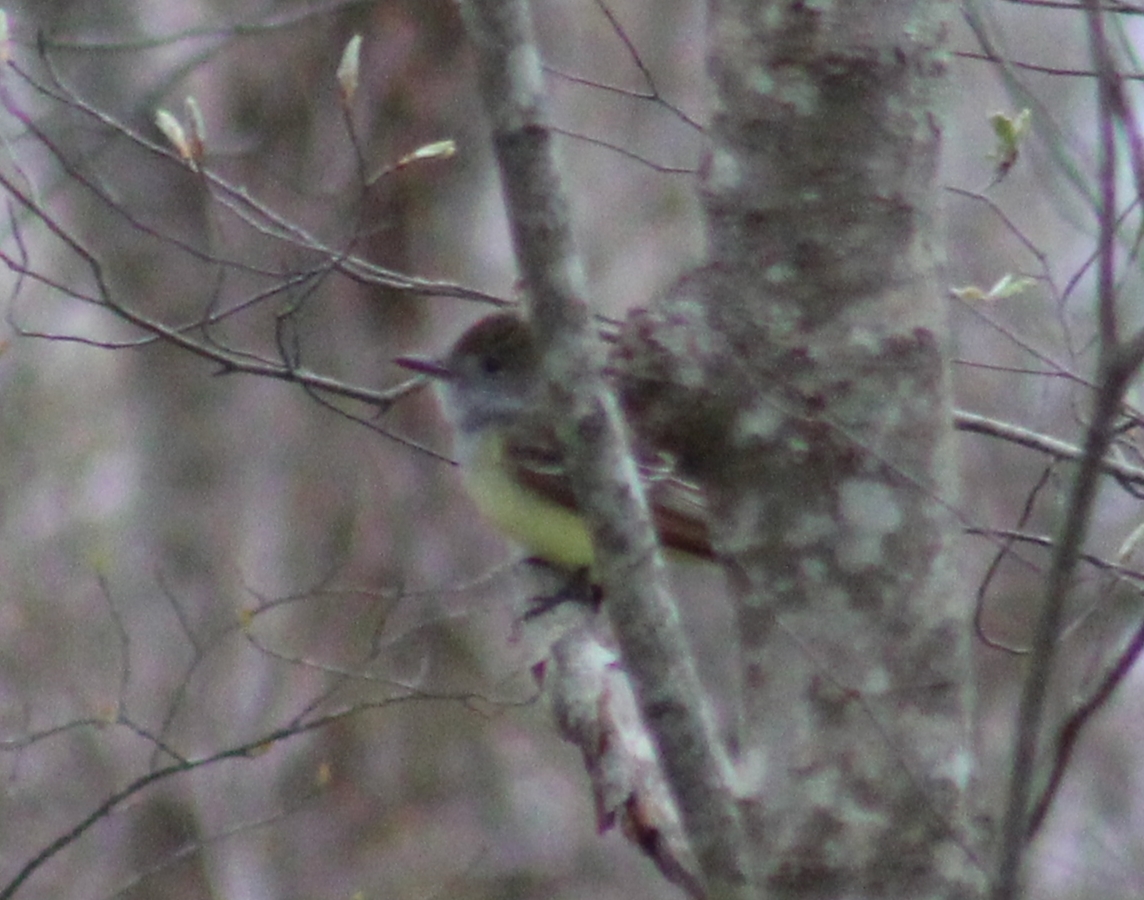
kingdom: Animalia
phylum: Chordata
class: Aves
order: Passeriformes
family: Tyrannidae
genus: Myiarchus
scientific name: Myiarchus crinitus
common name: Great crested flycatcher
